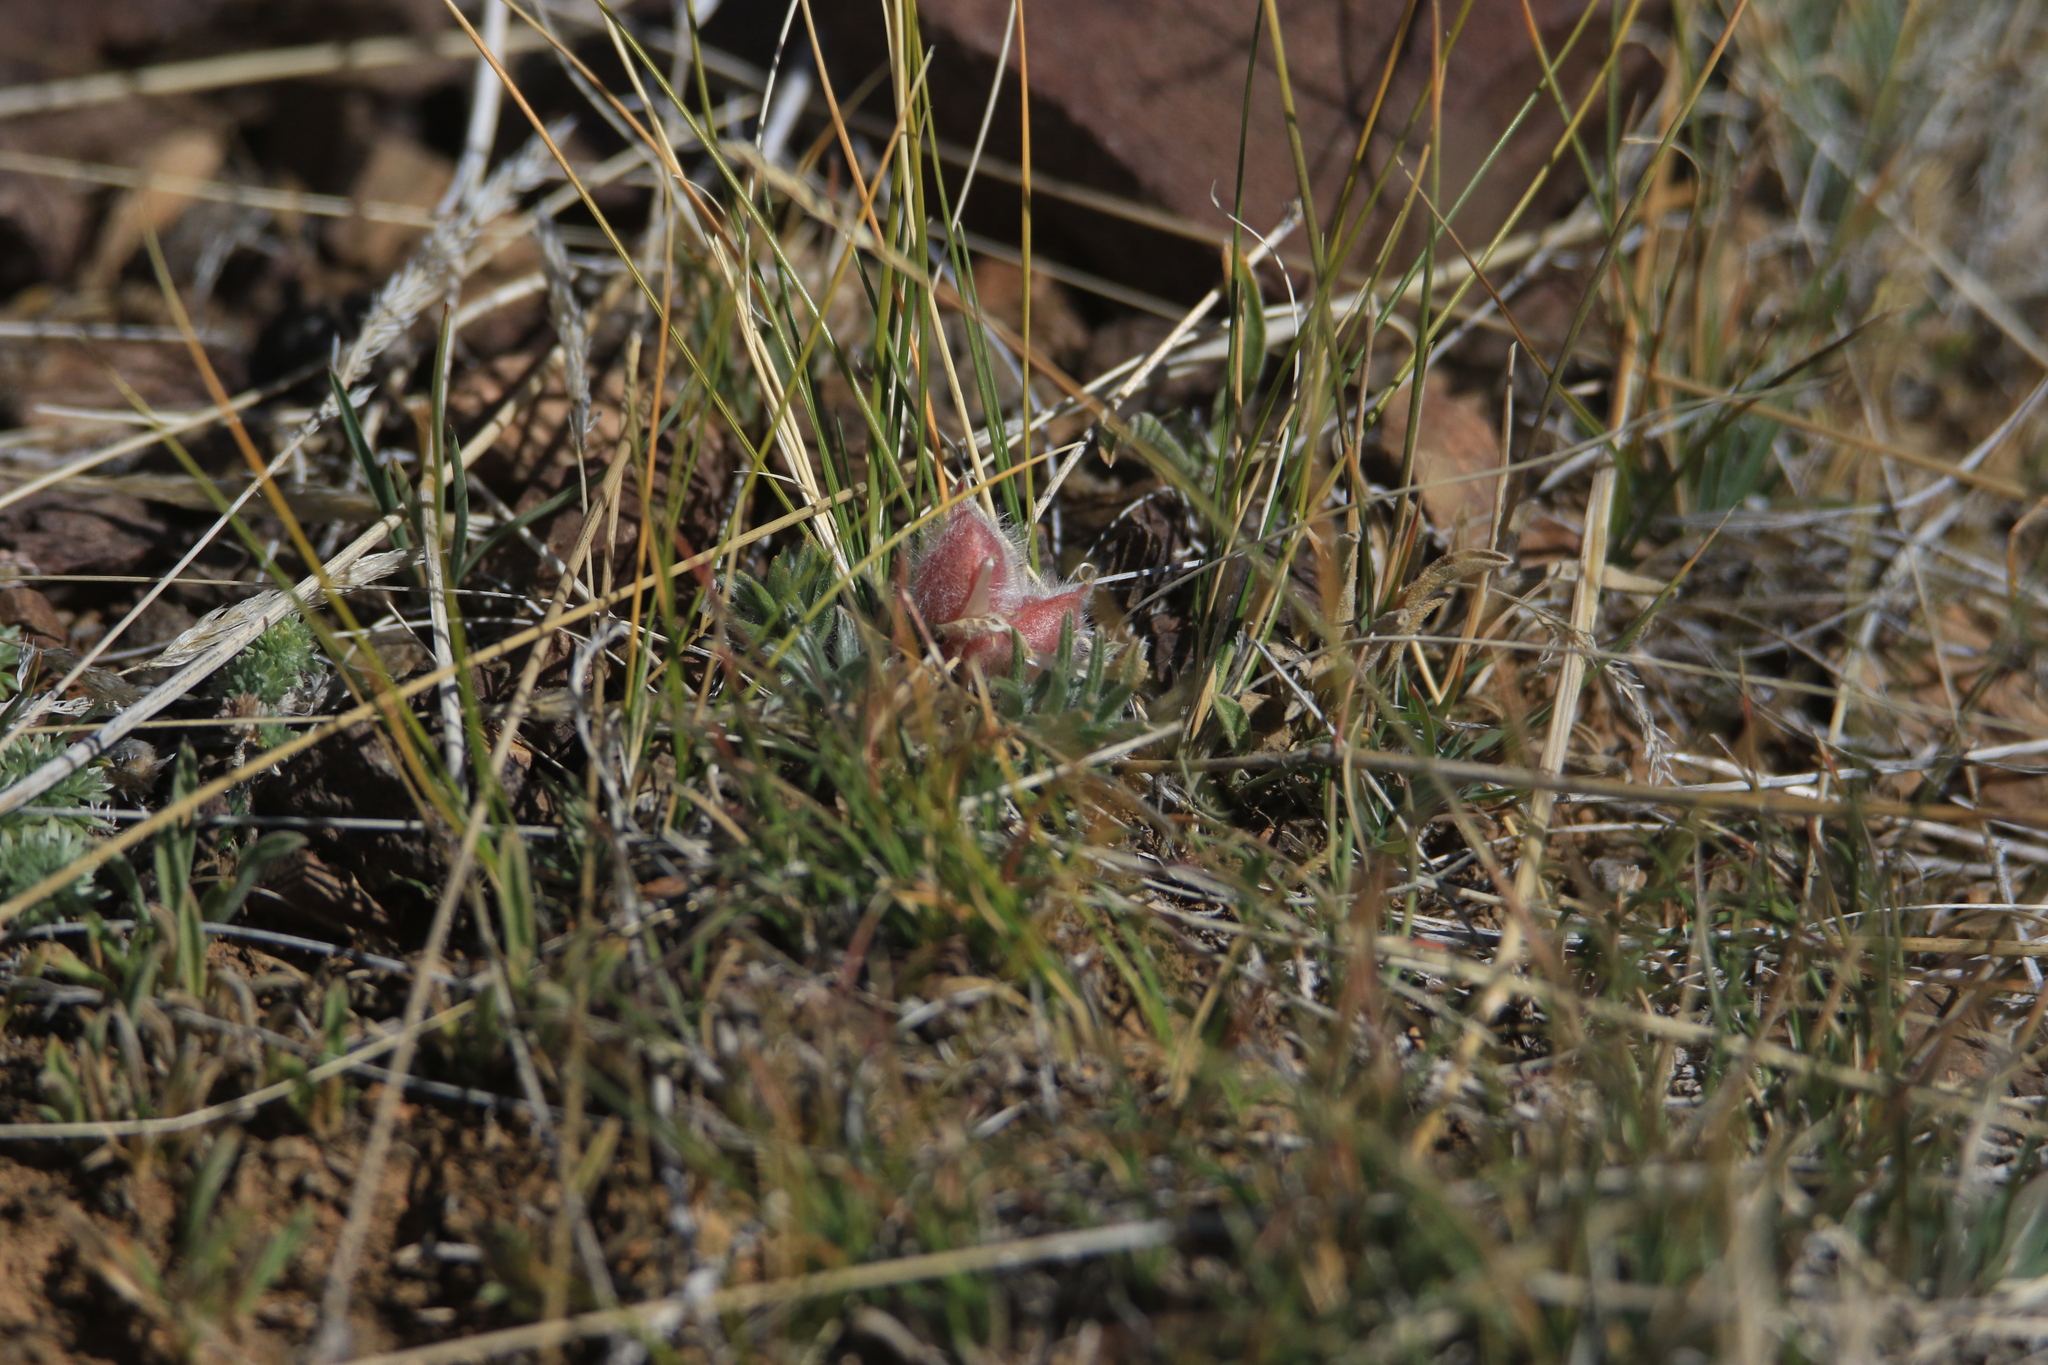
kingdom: Plantae
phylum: Tracheophyta
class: Magnoliopsida
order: Fabales
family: Fabaceae
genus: Oxytropis
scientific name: Oxytropis pumila
